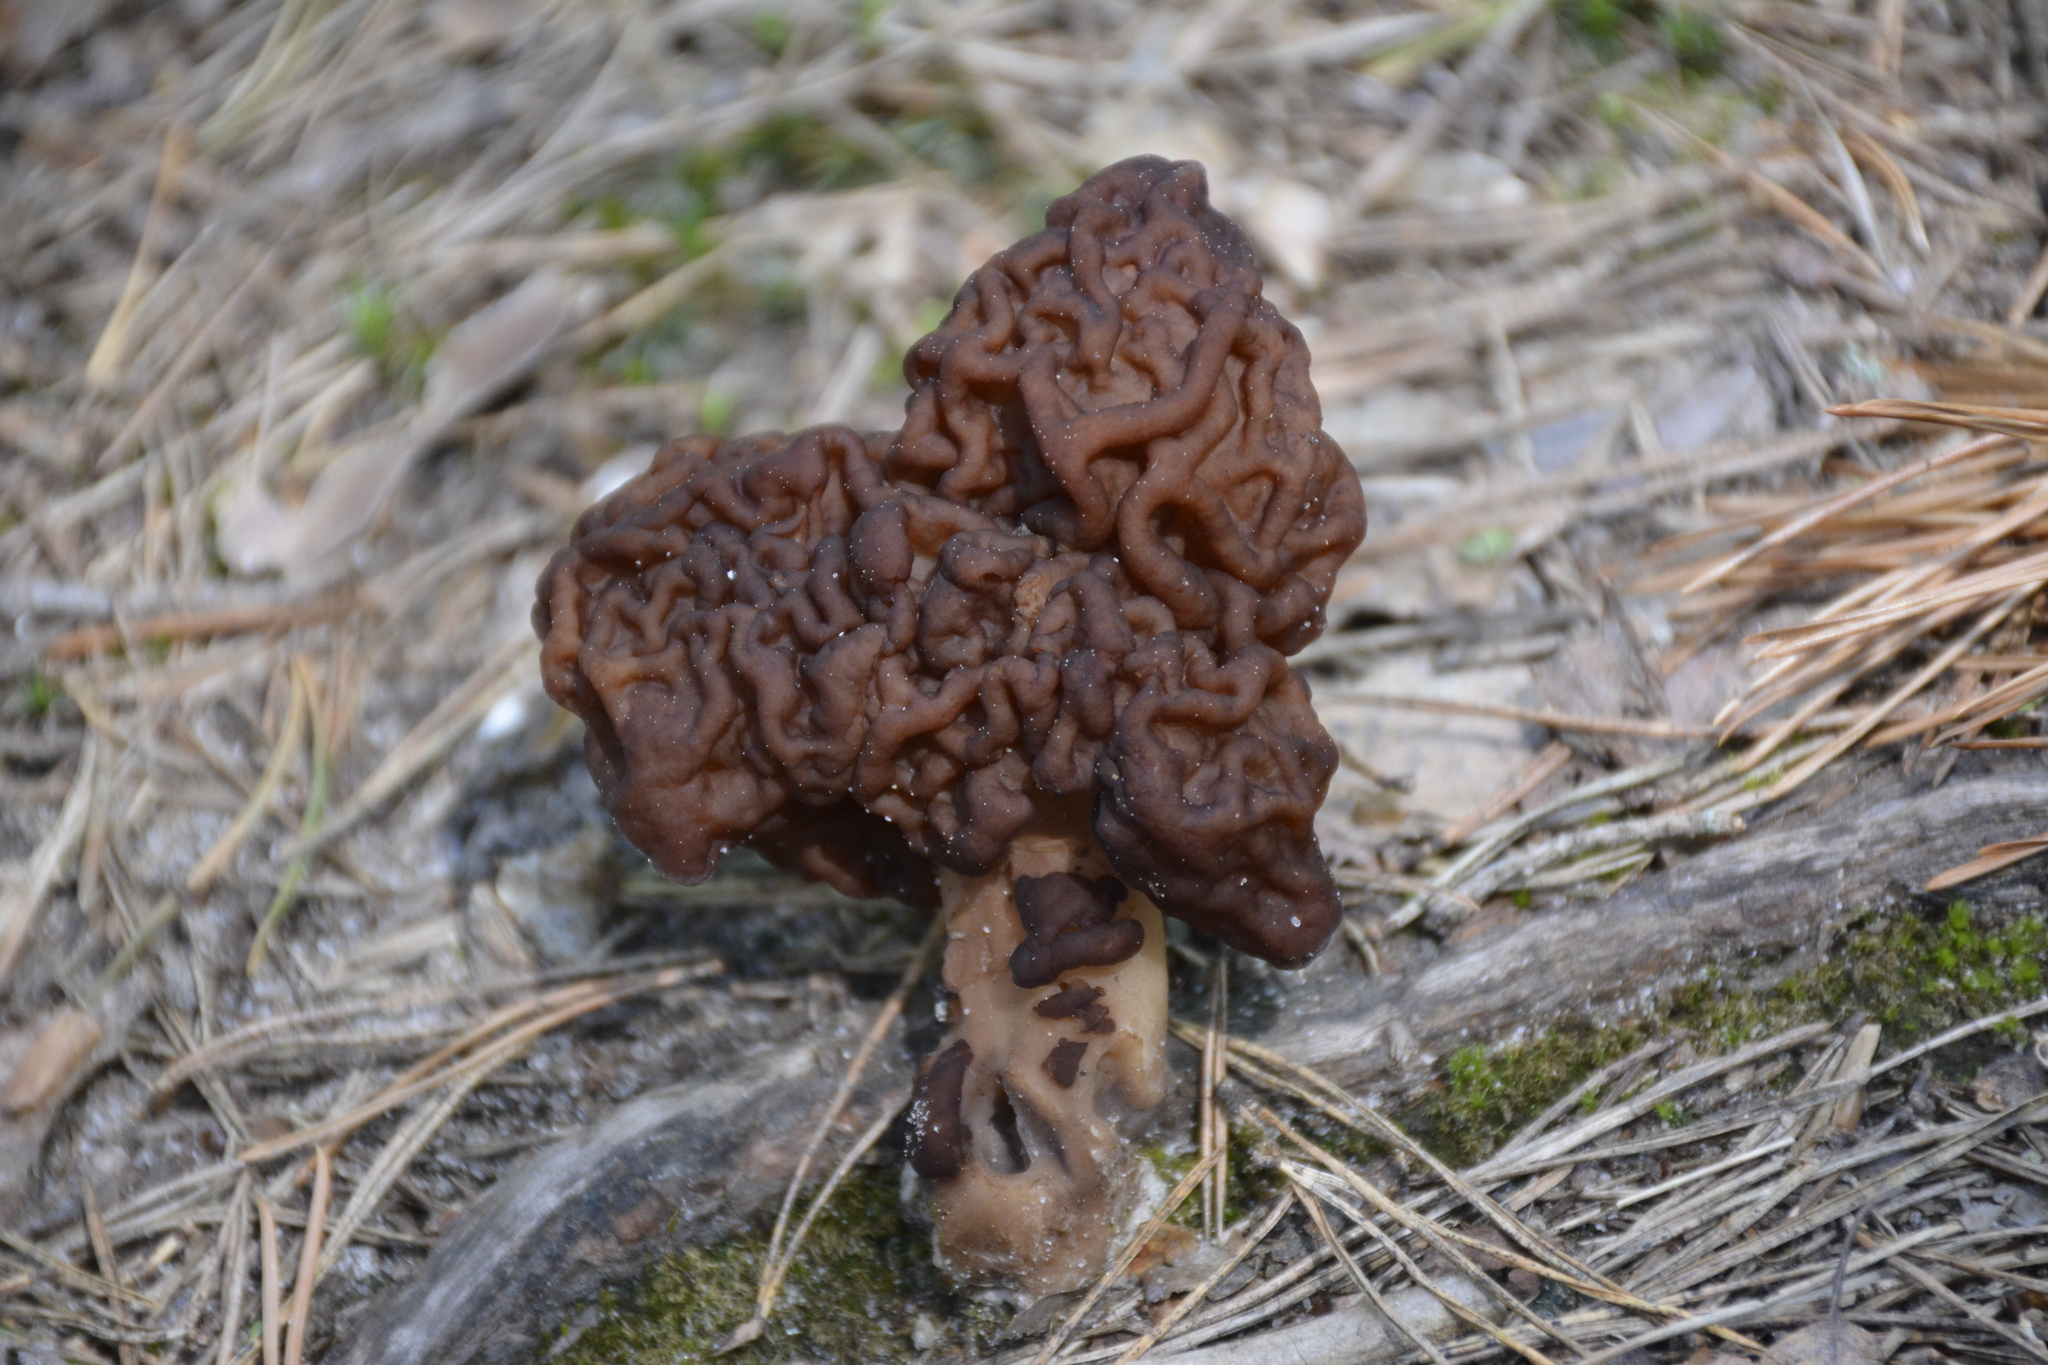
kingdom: Fungi
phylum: Ascomycota
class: Pezizomycetes
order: Pezizales
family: Discinaceae
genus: Gyromitra
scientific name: Gyromitra esculenta
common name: False morel
